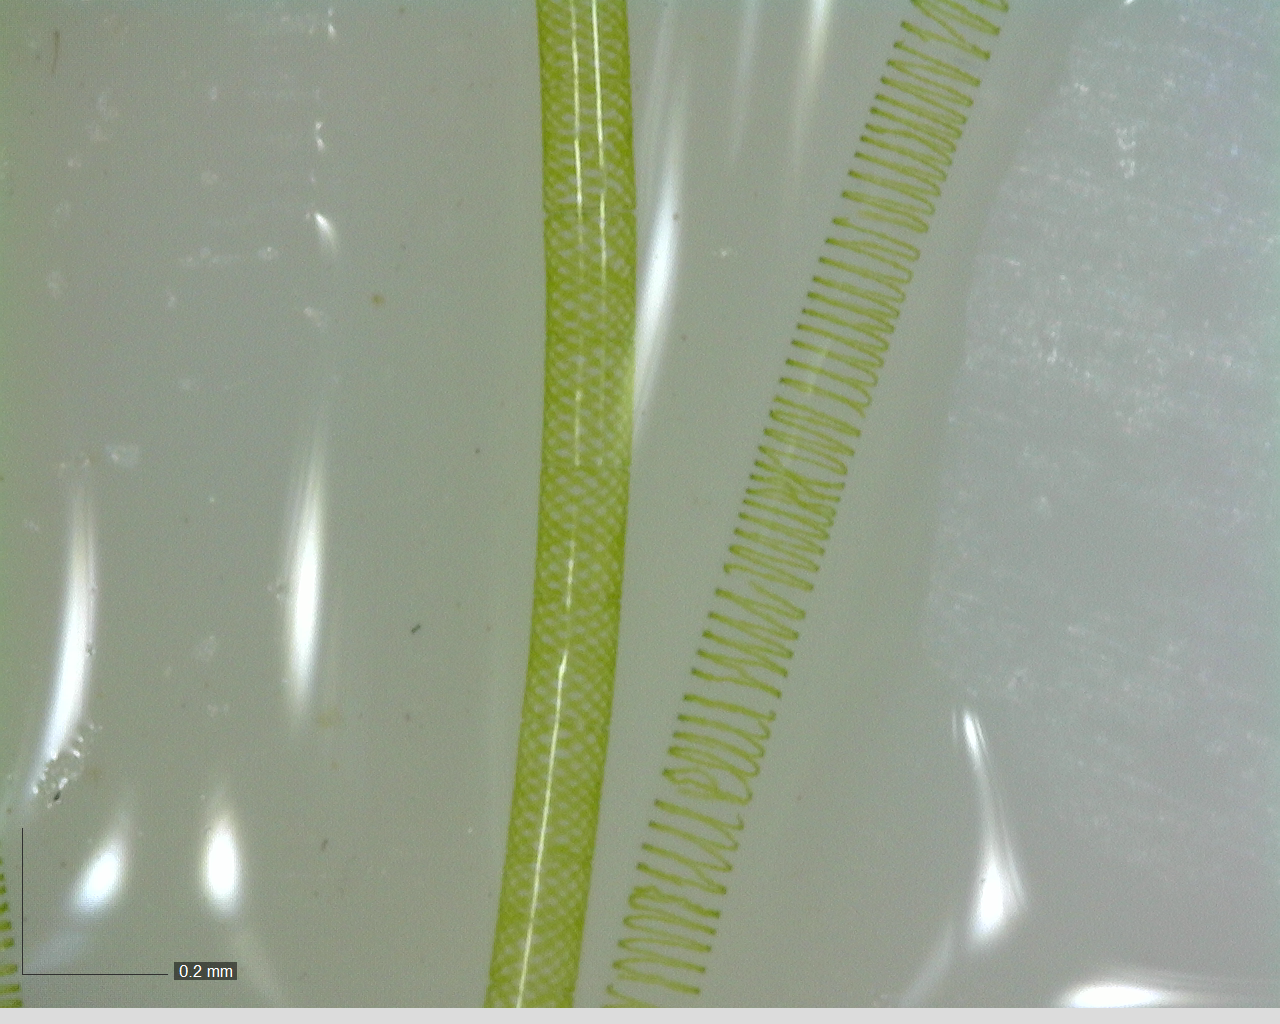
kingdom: Plantae
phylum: Charophyta
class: Zygnematophyceae
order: Zygnematales
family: Zygnemataceae
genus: Spirogyra
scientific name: Spirogyra
